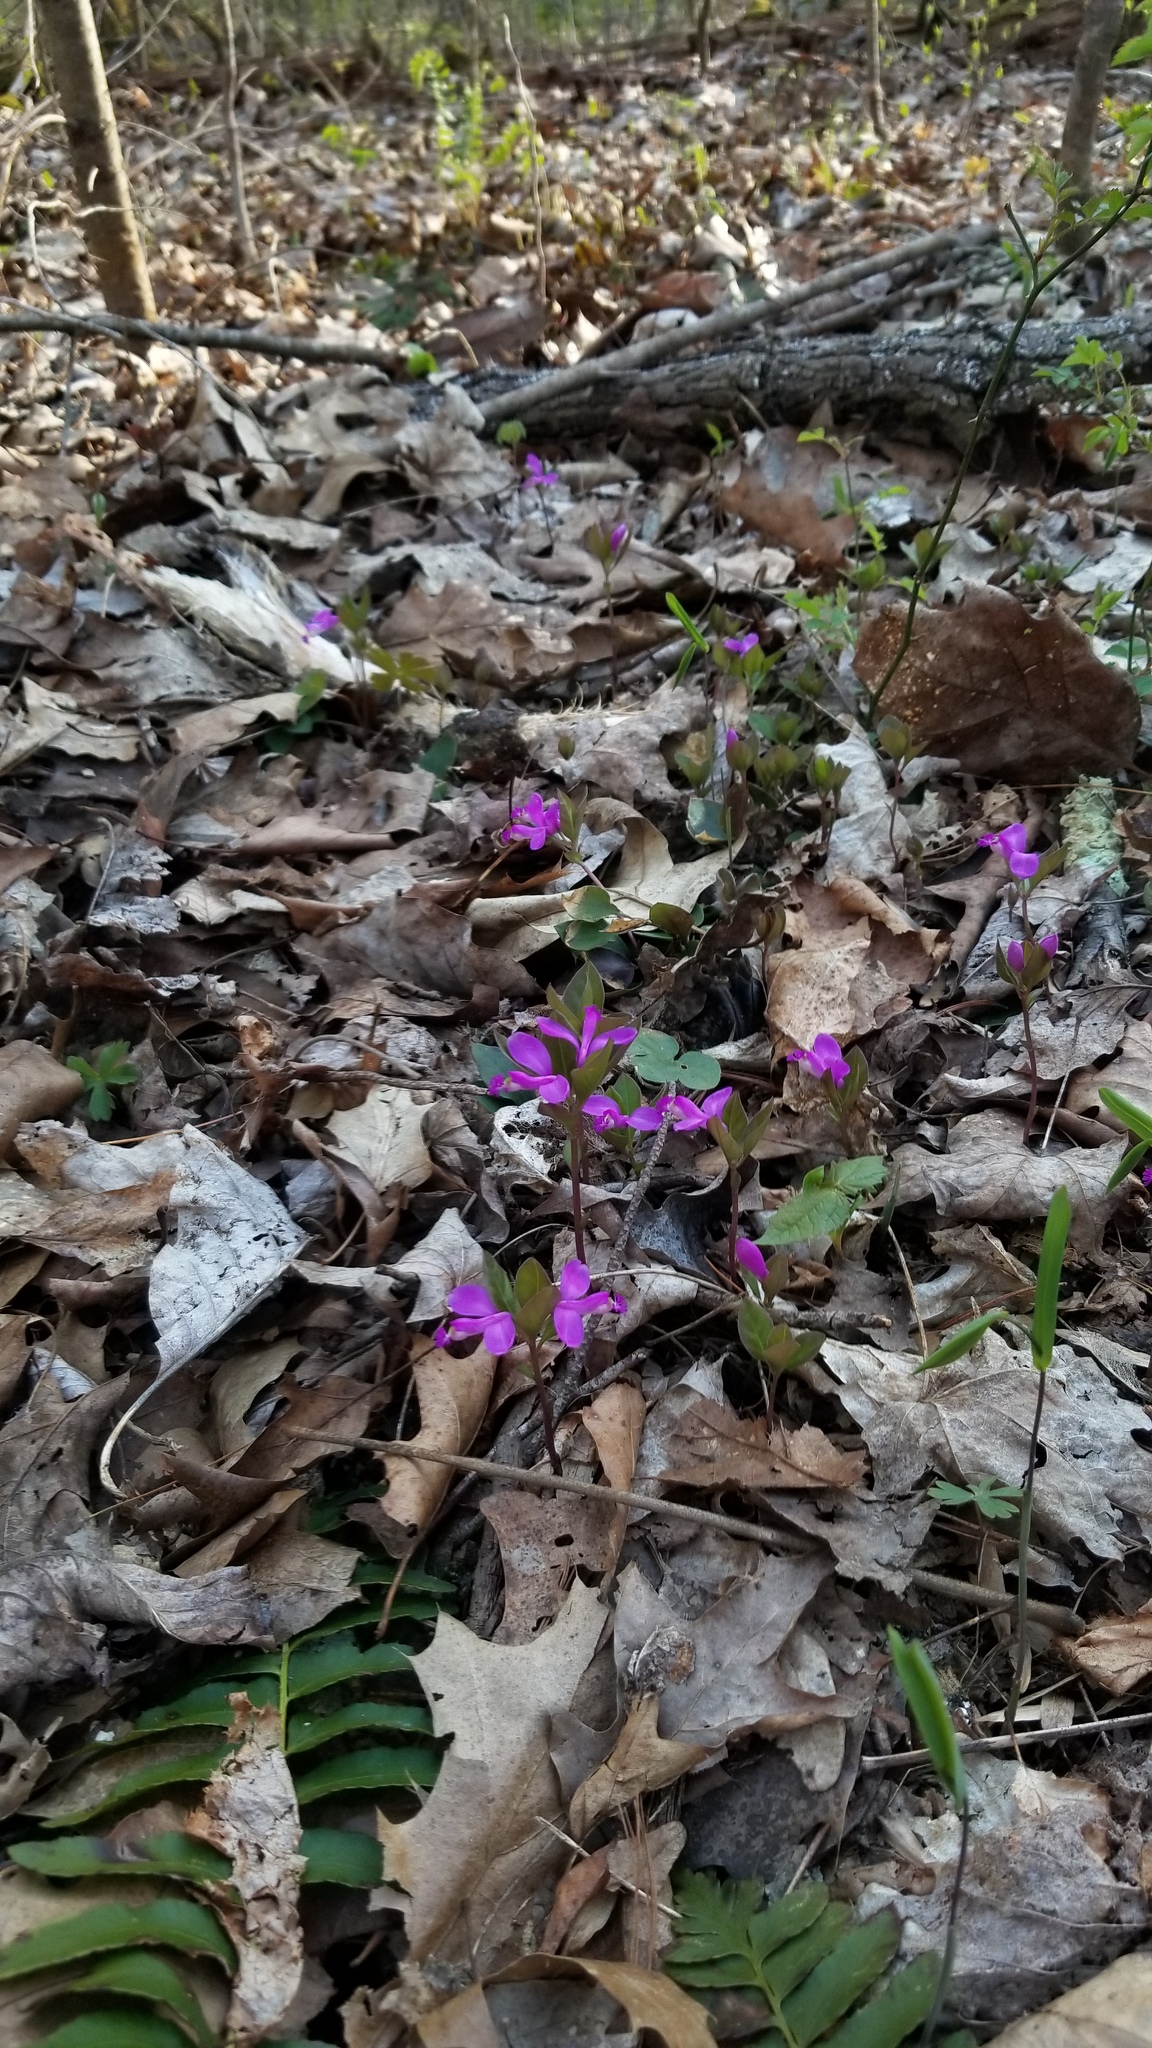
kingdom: Plantae
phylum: Tracheophyta
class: Magnoliopsida
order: Fabales
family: Polygalaceae
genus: Polygaloides
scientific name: Polygaloides paucifolia
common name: Bird-on-the-wing
